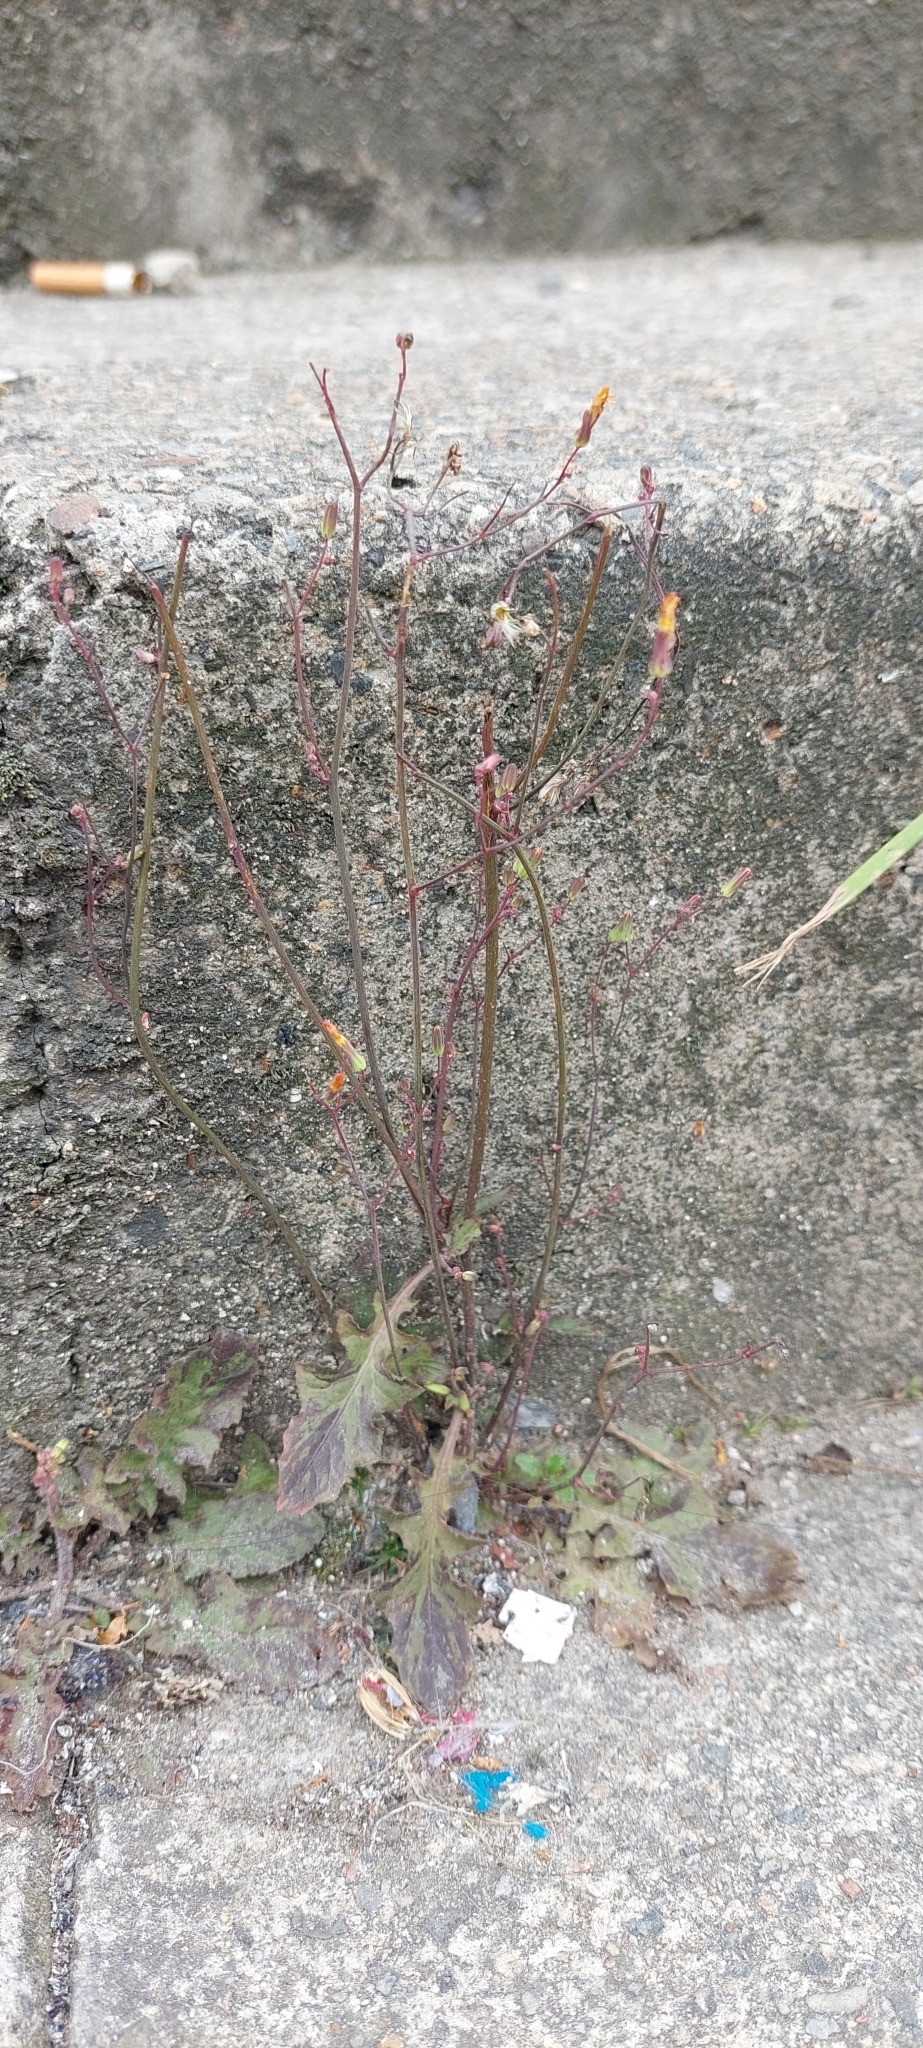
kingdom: Plantae
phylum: Tracheophyta
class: Magnoliopsida
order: Asterales
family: Asteraceae
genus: Youngia
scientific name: Youngia japonica
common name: Oriental false hawksbeard
